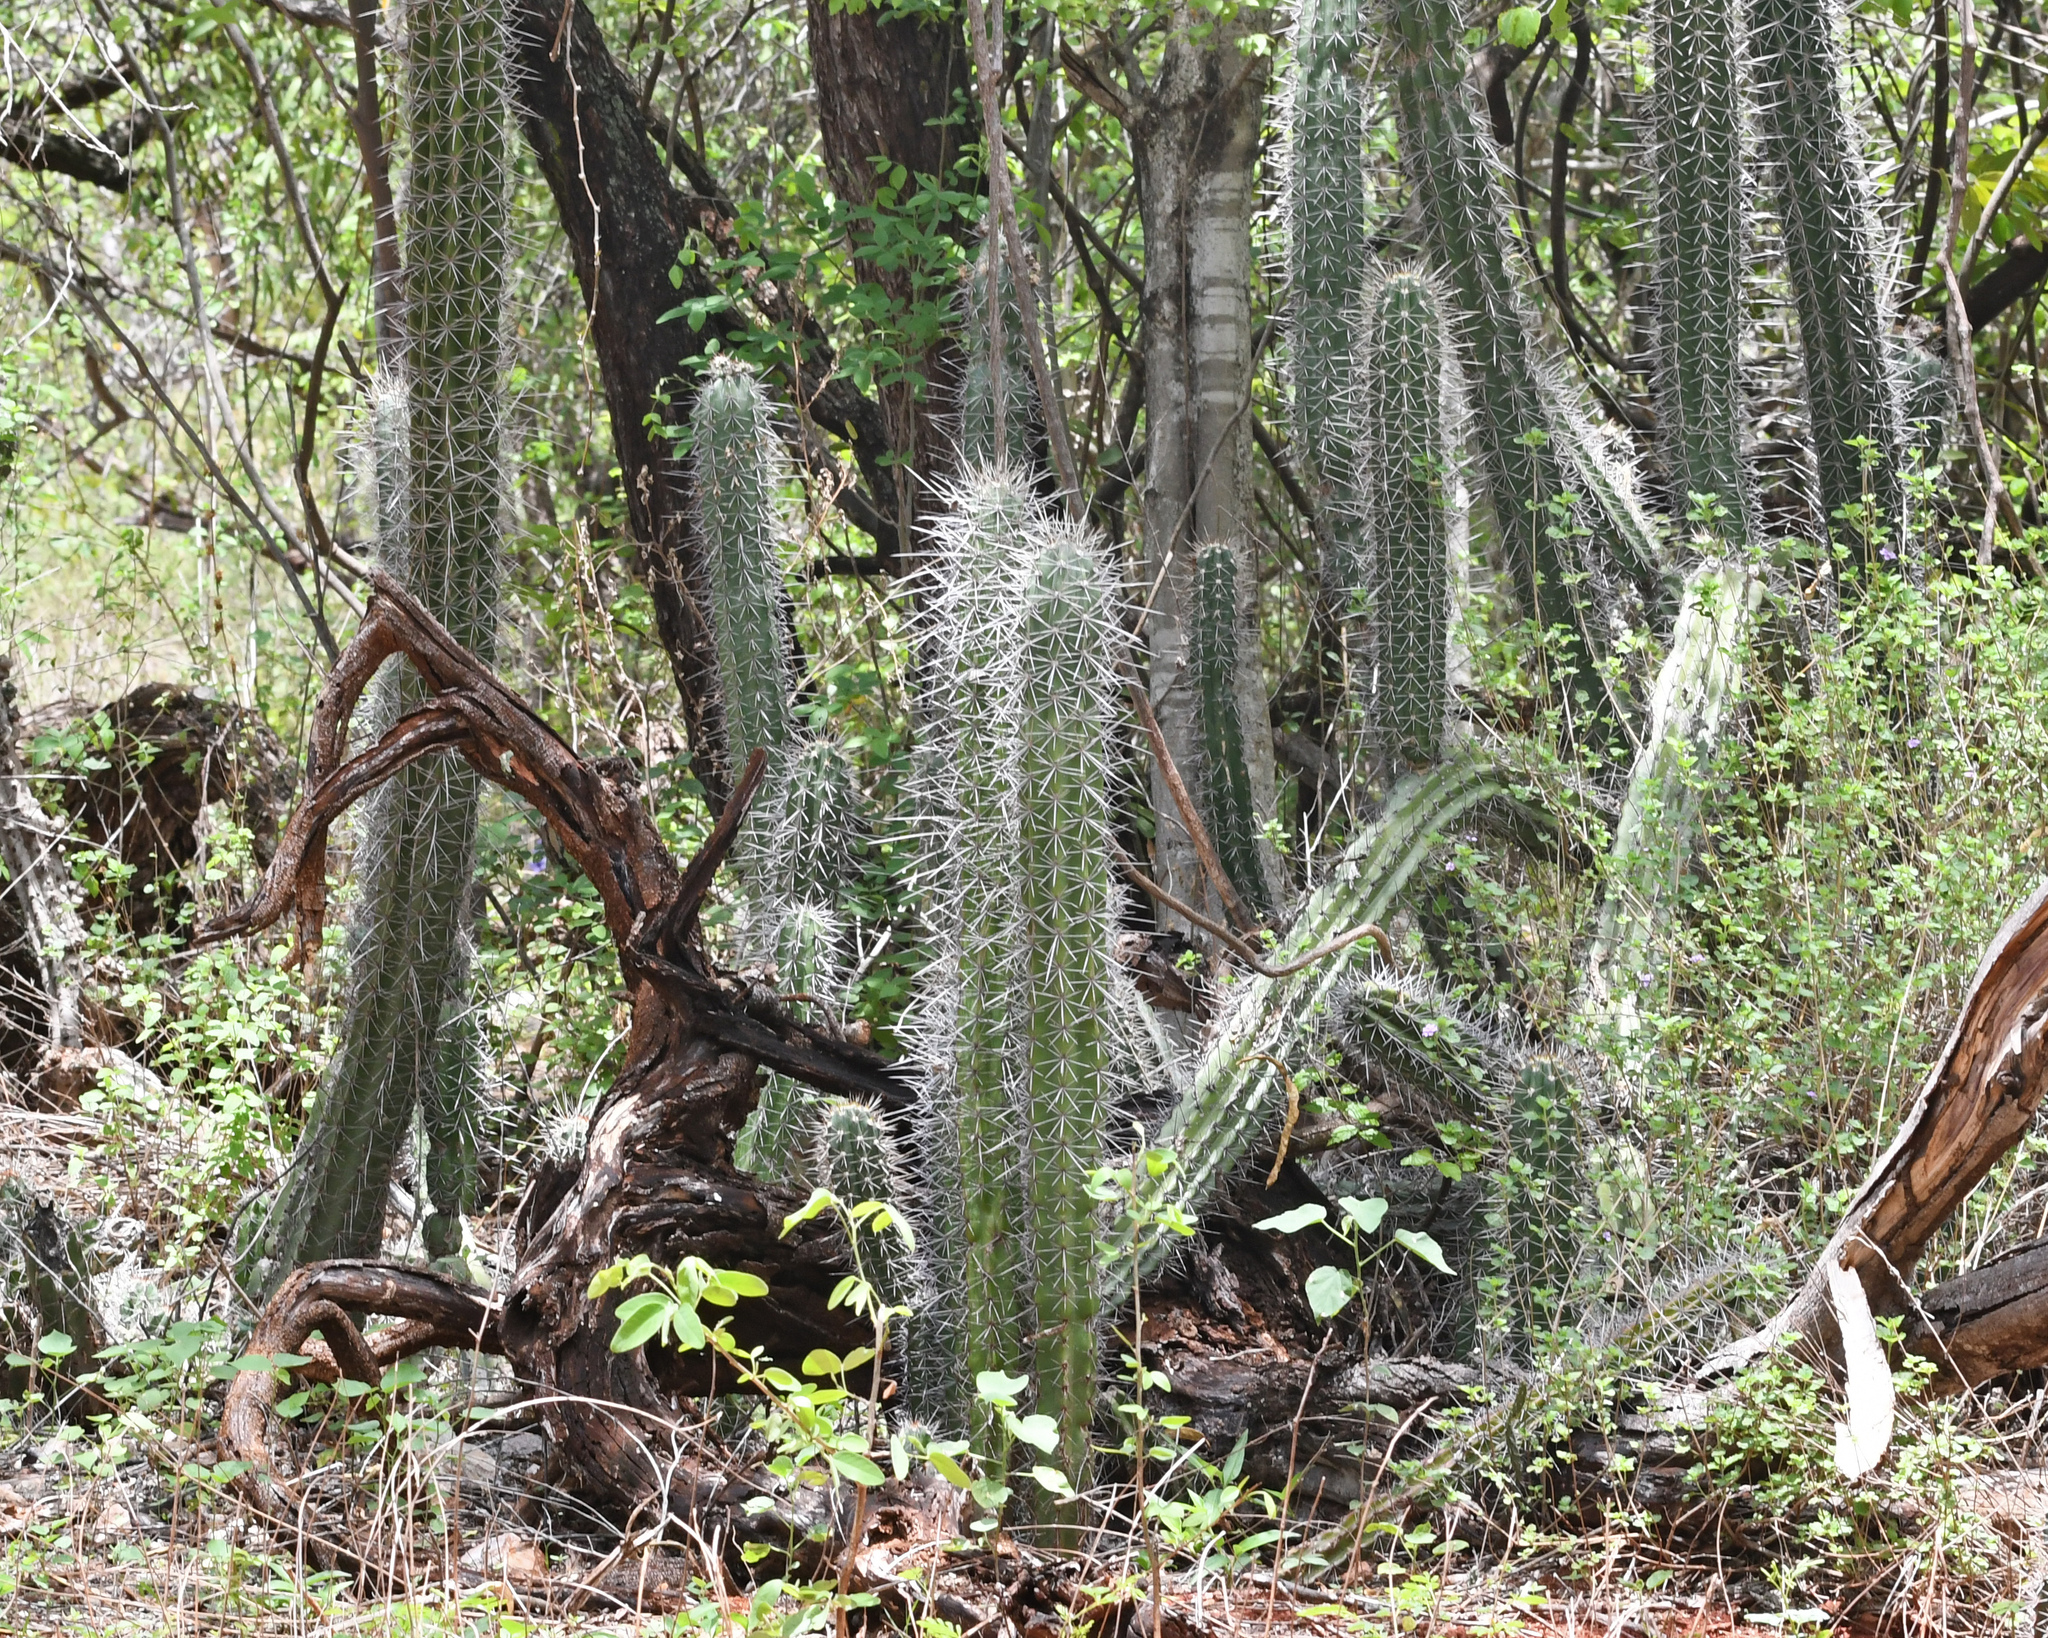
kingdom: Plantae
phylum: Tracheophyta
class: Magnoliopsida
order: Caryophyllales
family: Cactaceae
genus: Stenocereus
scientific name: Stenocereus heptagonus
